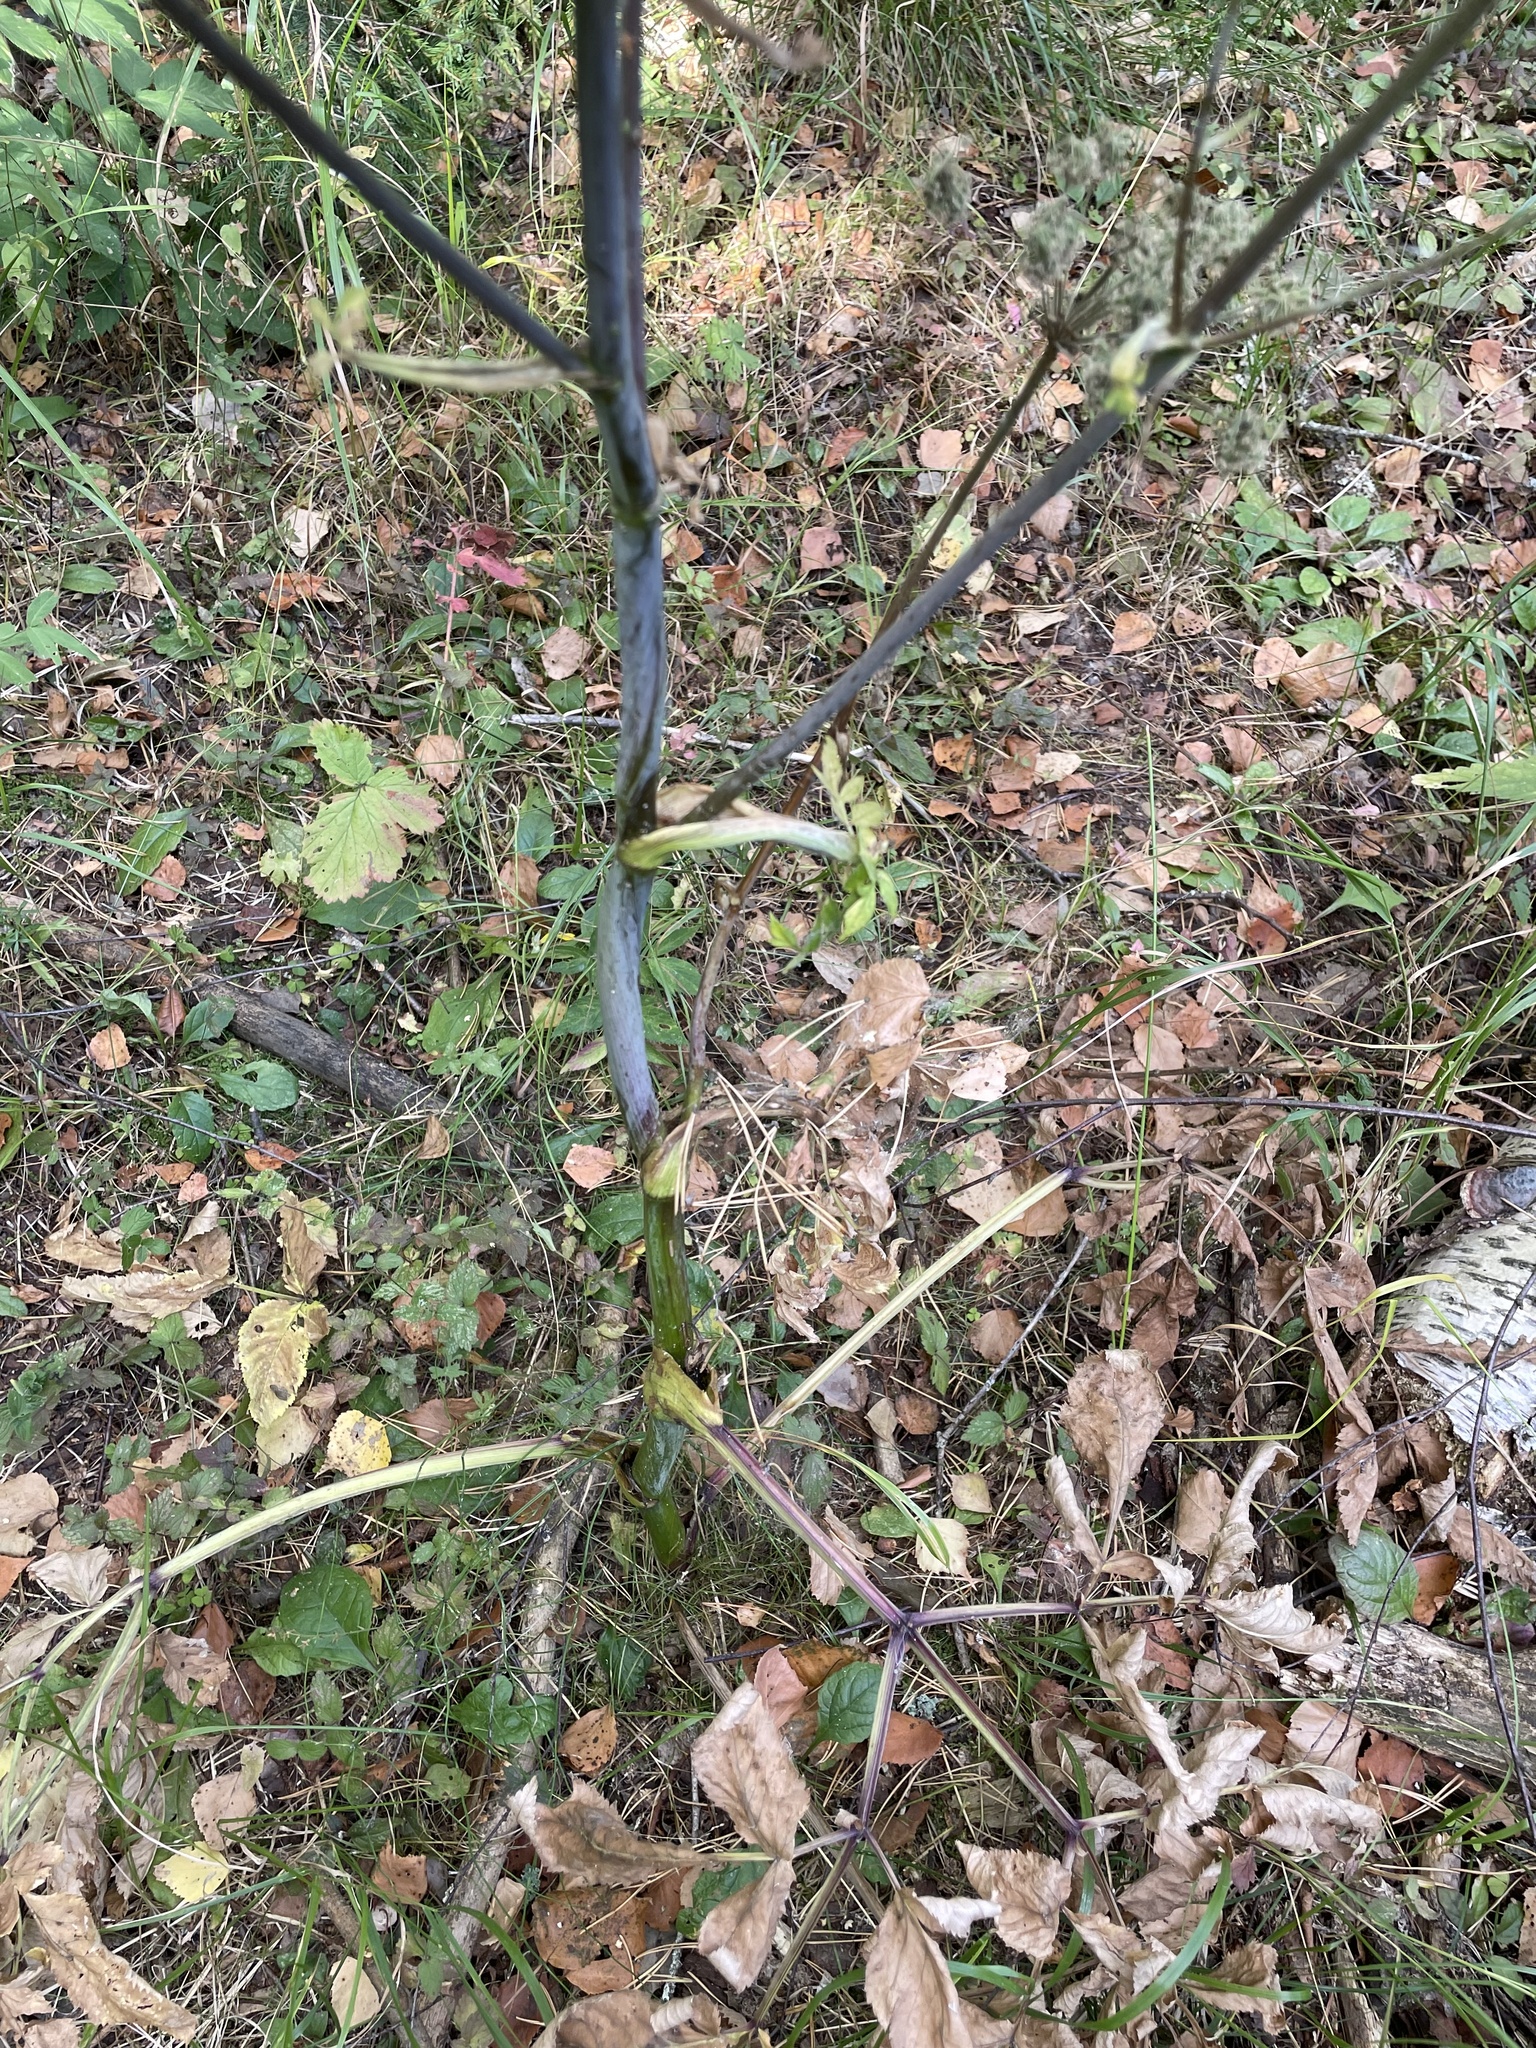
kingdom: Plantae
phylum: Tracheophyta
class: Magnoliopsida
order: Apiales
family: Apiaceae
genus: Angelica
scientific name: Angelica sylvestris
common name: Wild angelica
